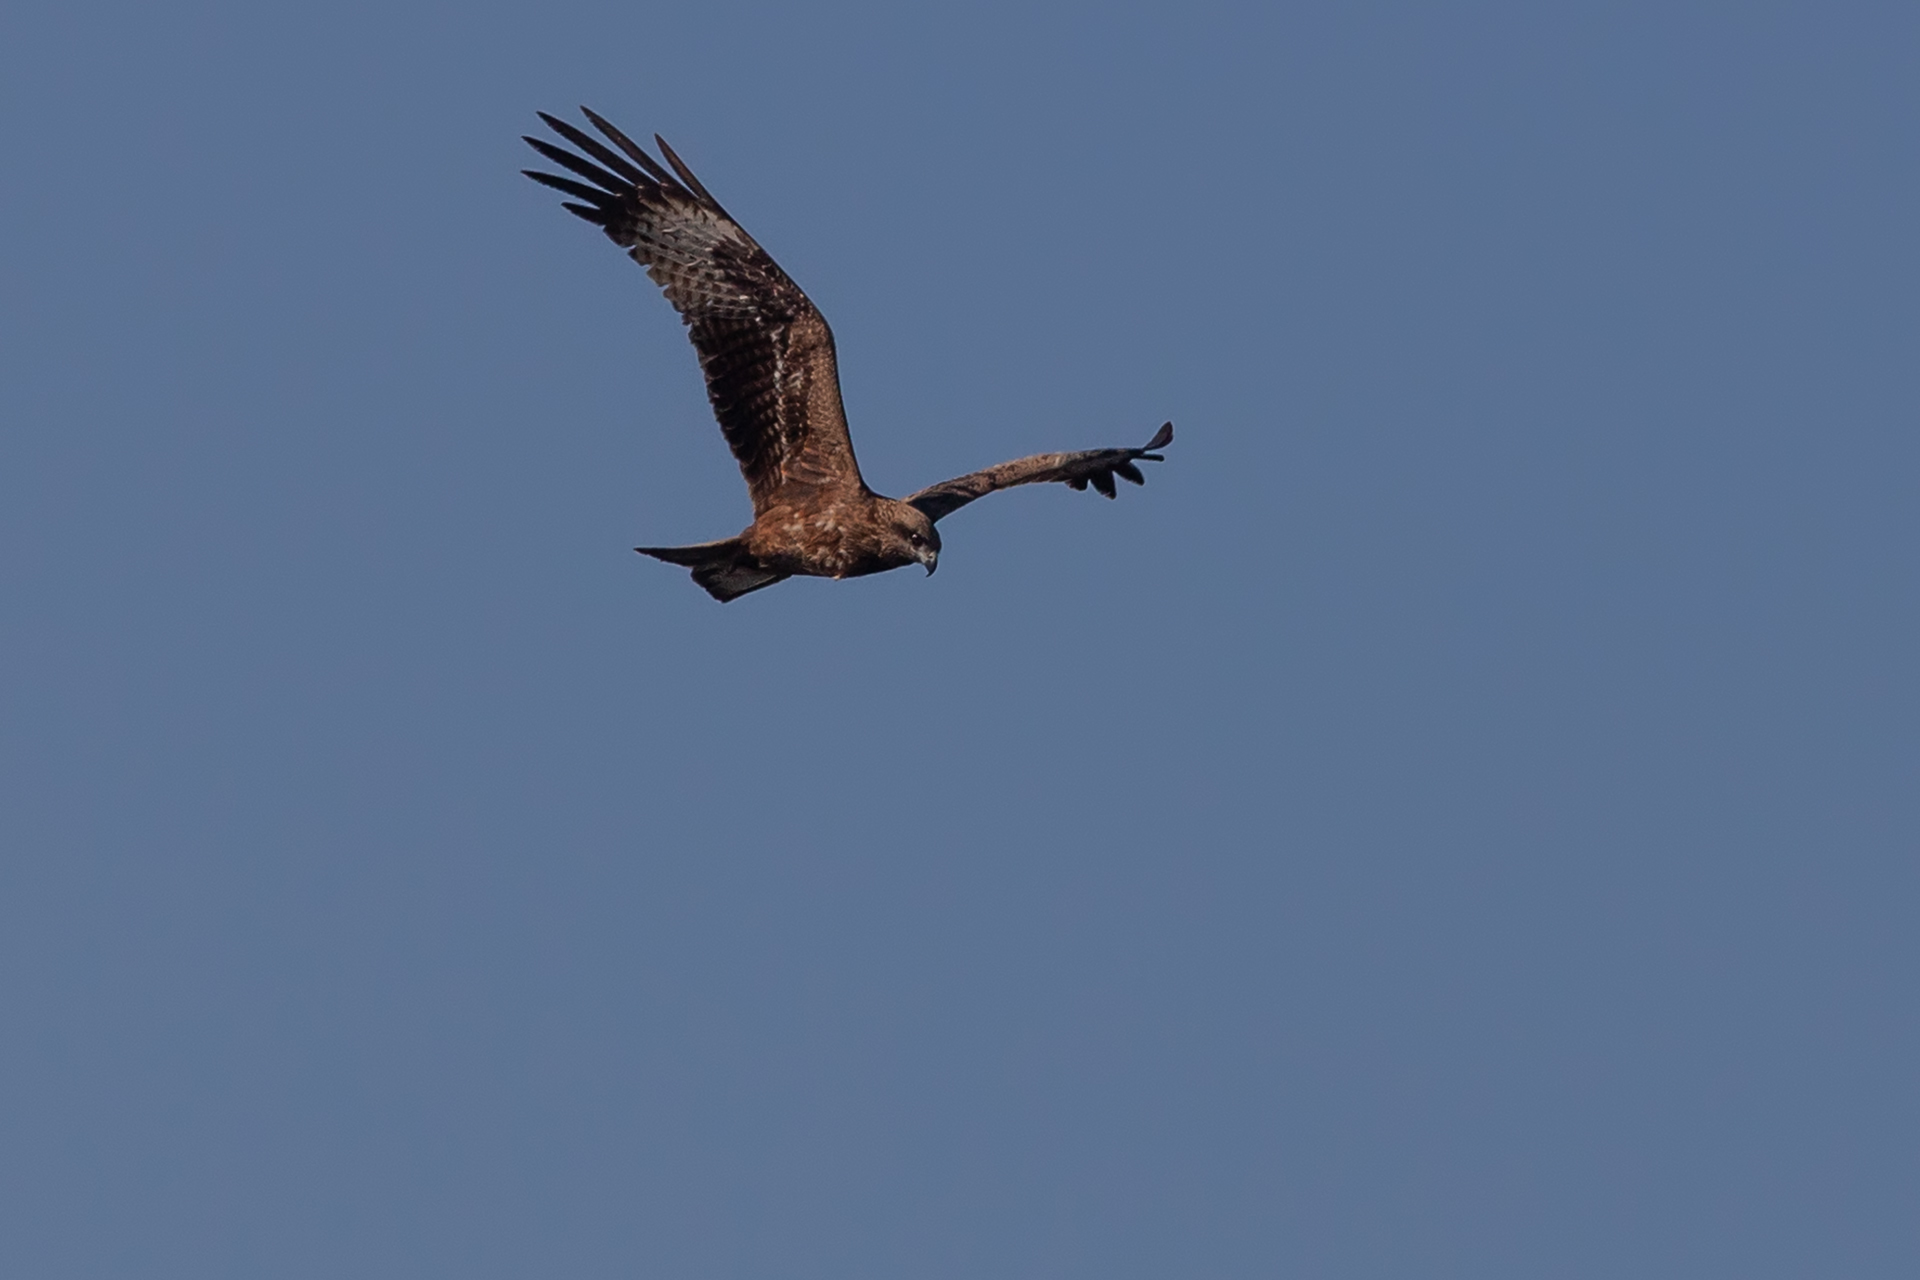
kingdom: Animalia
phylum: Chordata
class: Aves
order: Accipitriformes
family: Accipitridae
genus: Milvus
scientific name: Milvus migrans
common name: Black kite
